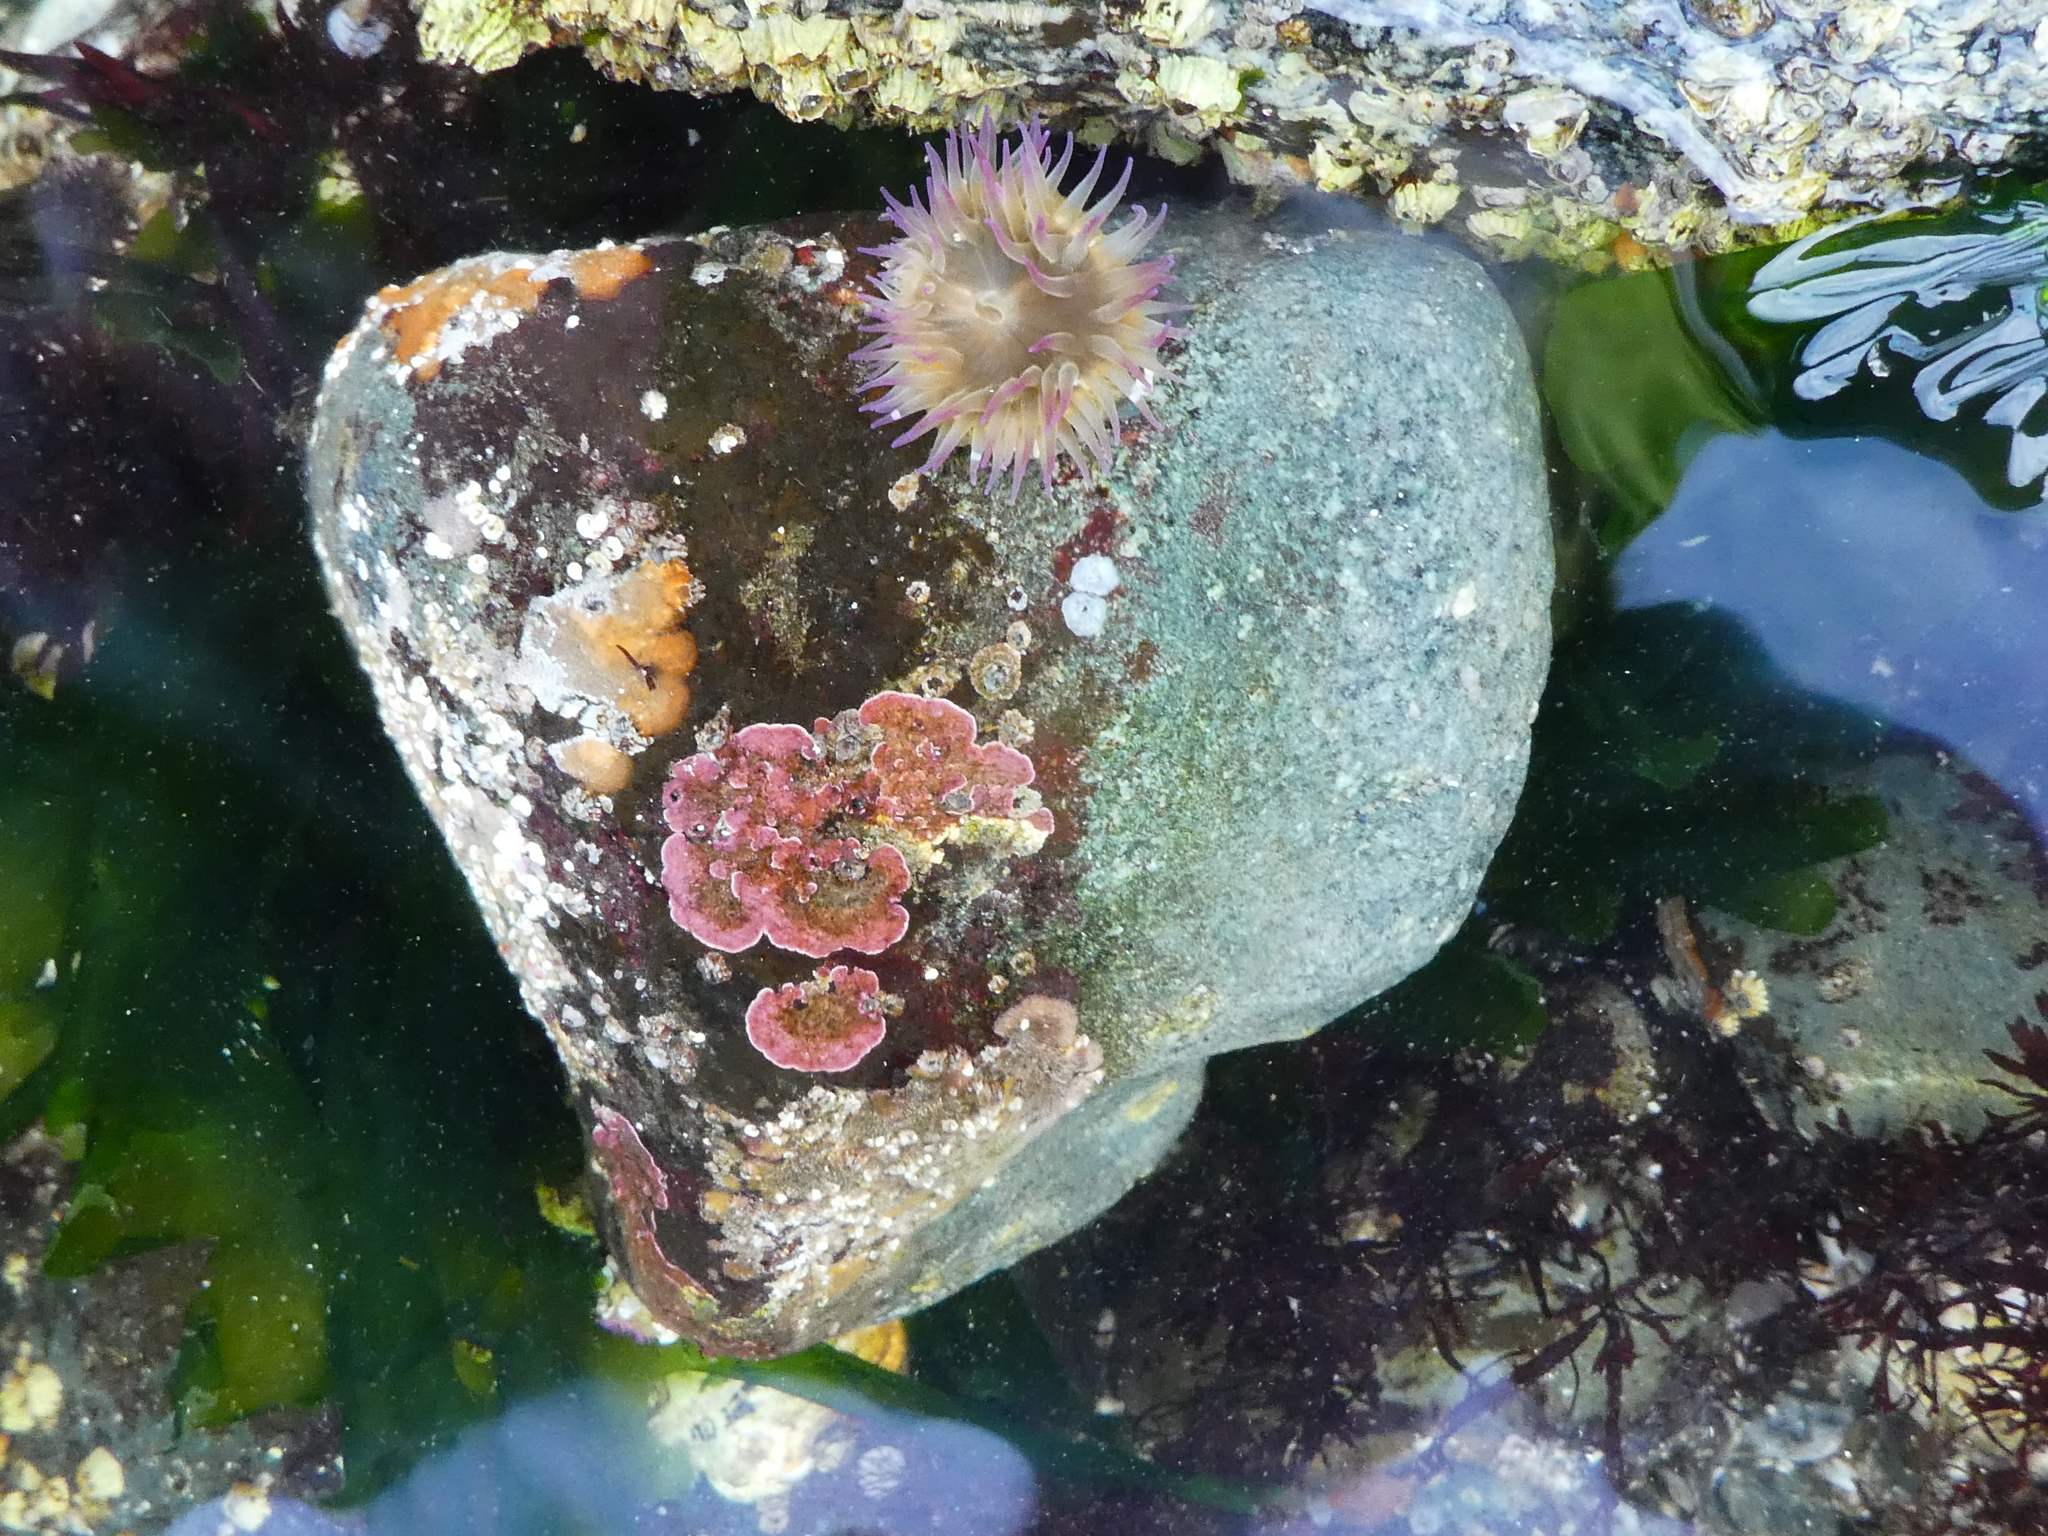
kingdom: Animalia
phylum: Cnidaria
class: Anthozoa
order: Actiniaria
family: Actiniidae
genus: Anthopleura
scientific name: Anthopleura elegantissima
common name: Clonal anemone
